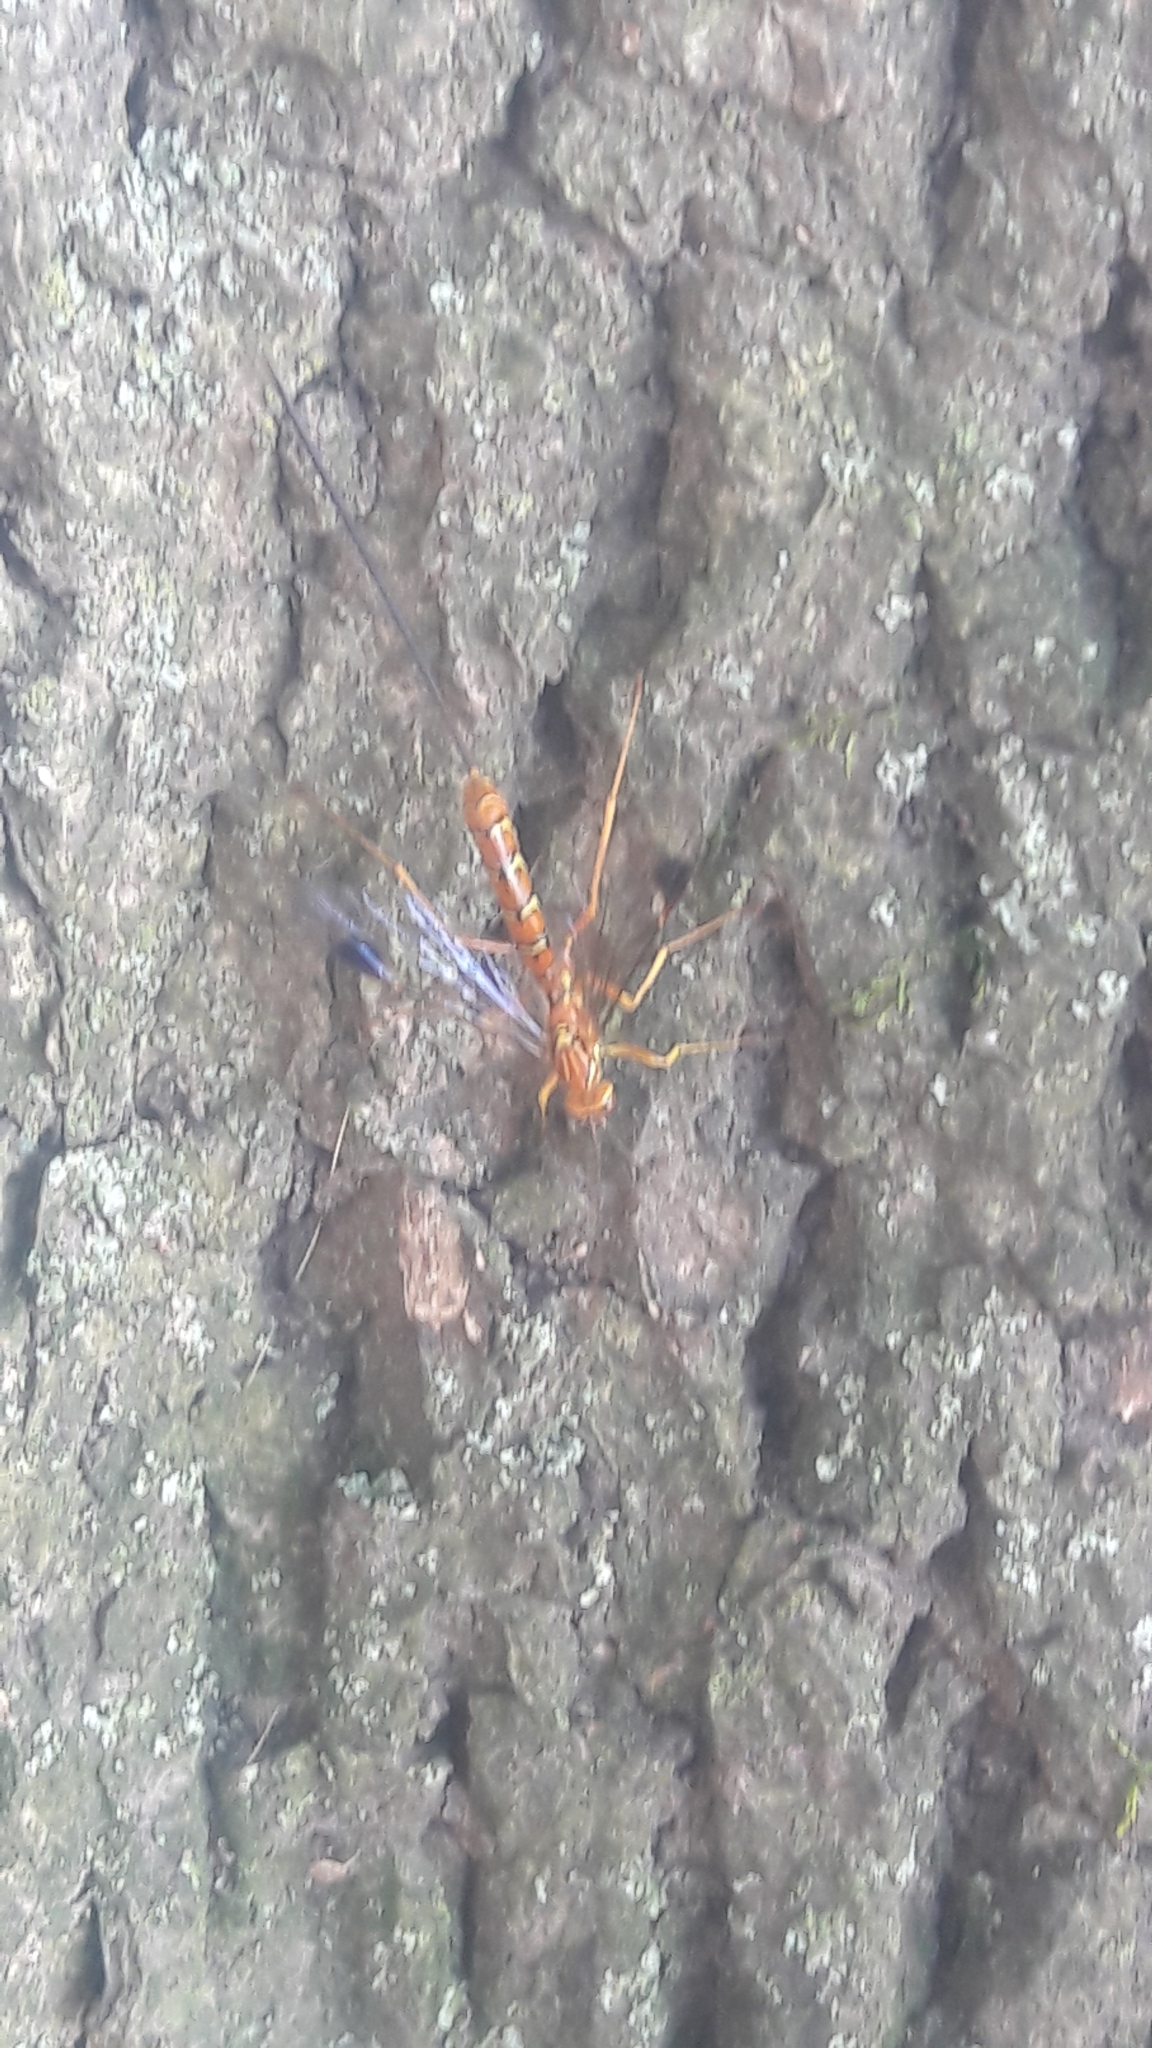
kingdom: Animalia
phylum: Arthropoda
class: Insecta
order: Hymenoptera
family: Ichneumonidae
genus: Megarhyssa
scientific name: Megarhyssa greenei
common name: Greene's giant ichneumonid wasp
